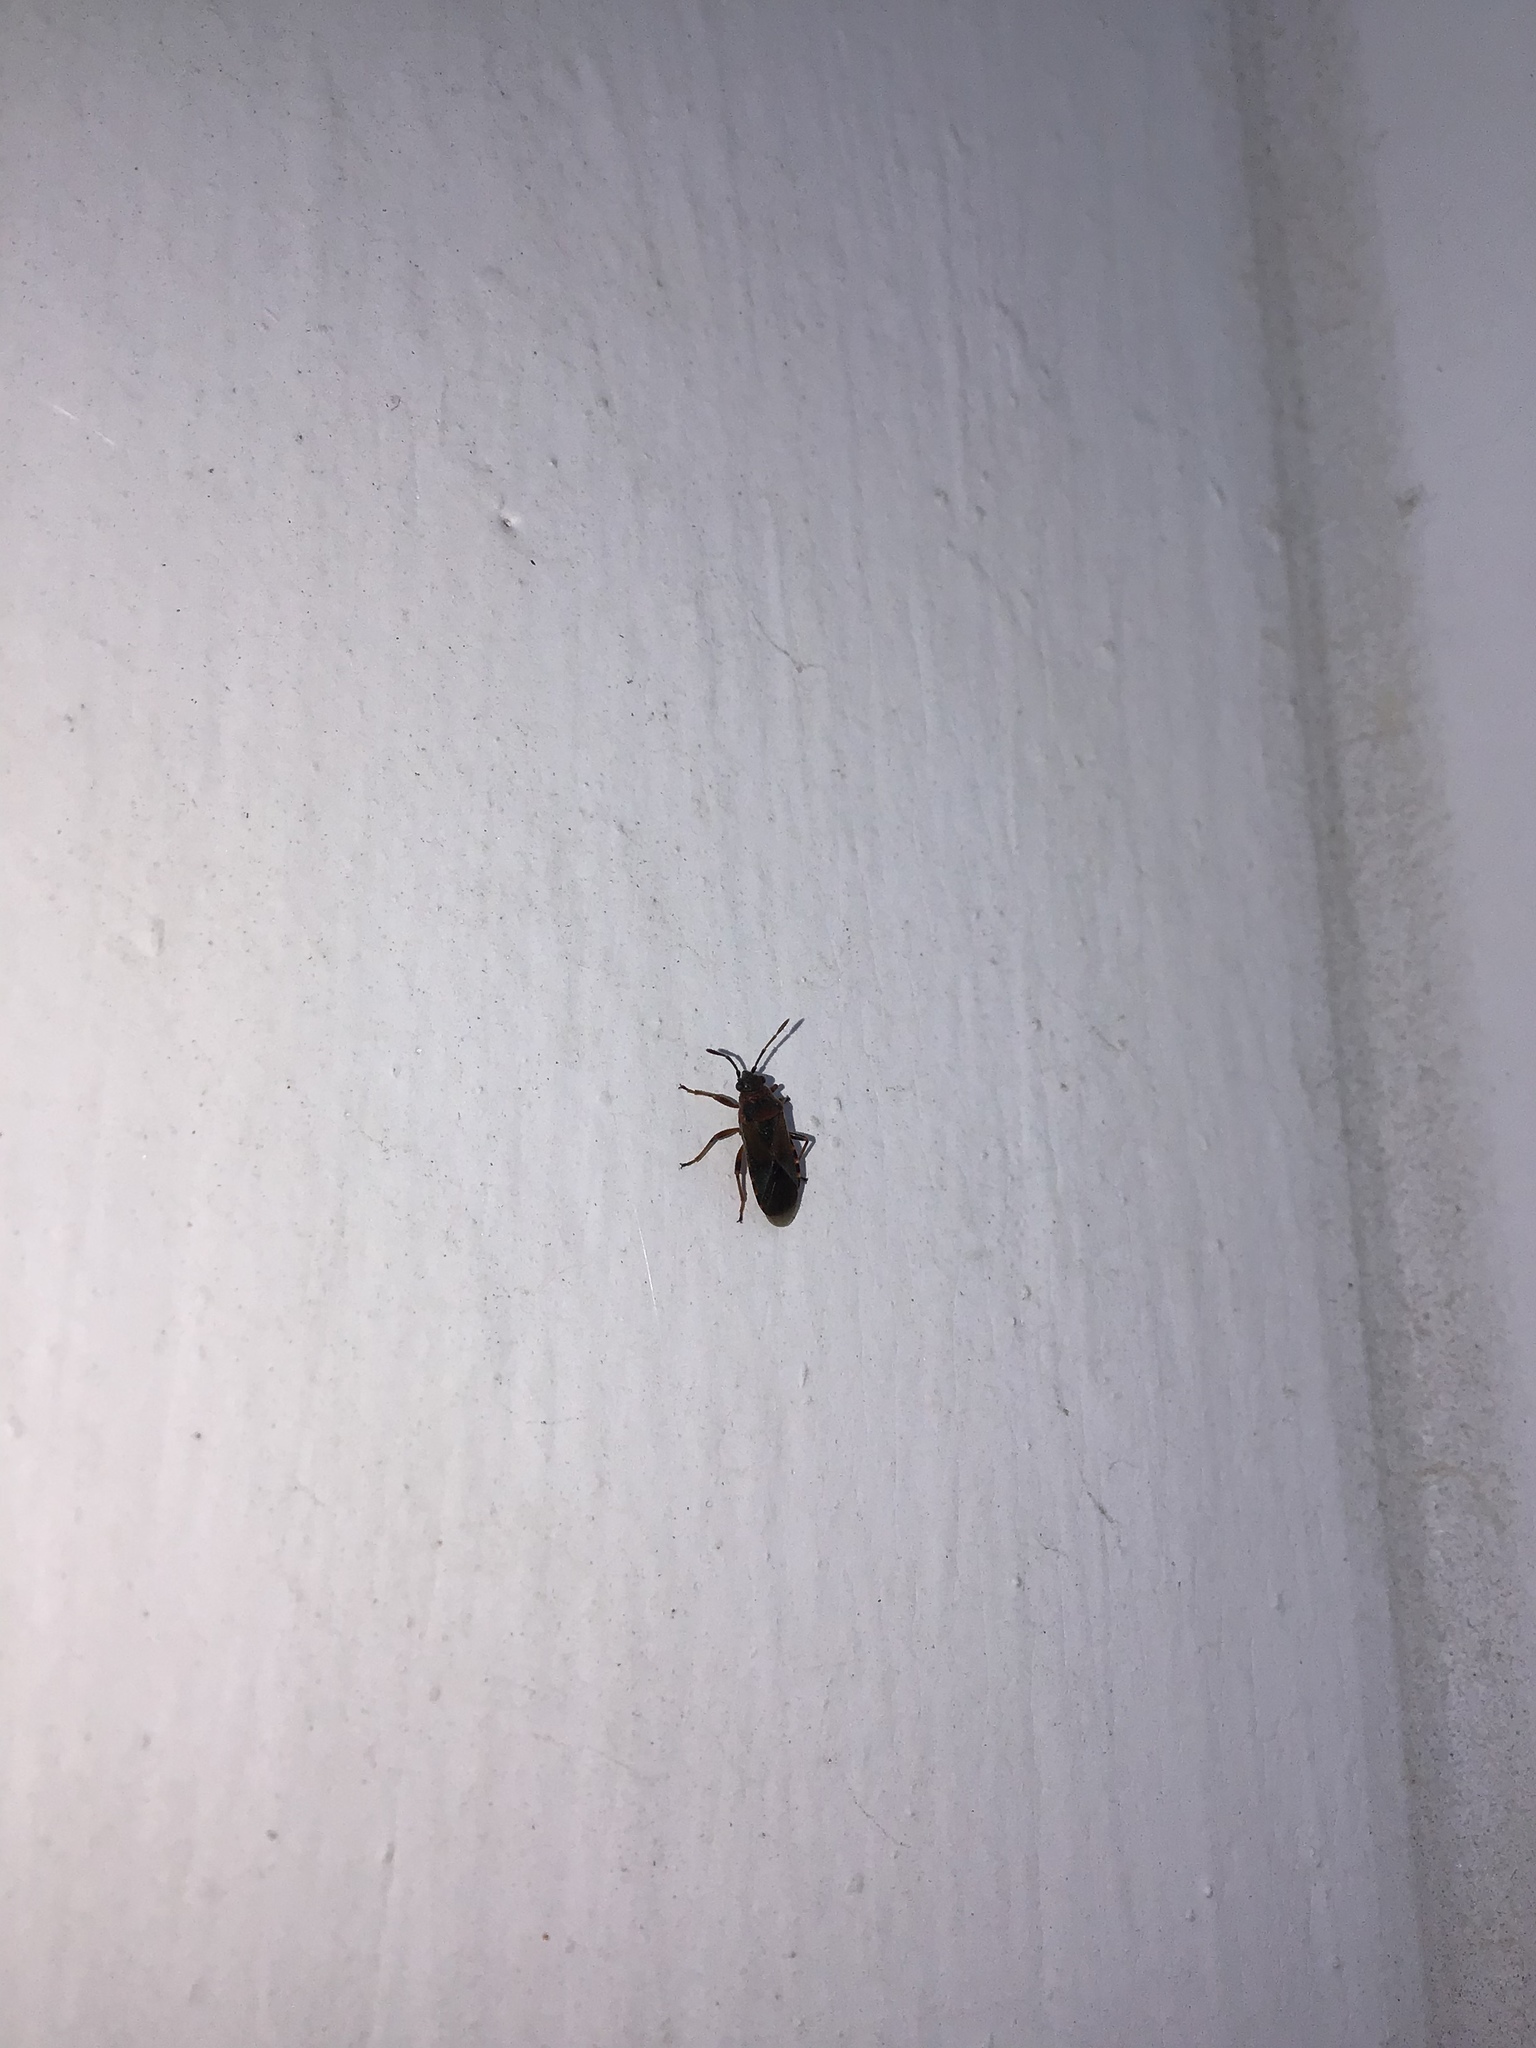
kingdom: Animalia
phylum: Arthropoda
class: Insecta
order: Hemiptera
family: Lygaeidae
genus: Arocatus
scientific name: Arocatus melanocephalus
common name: Lygaeid bug
